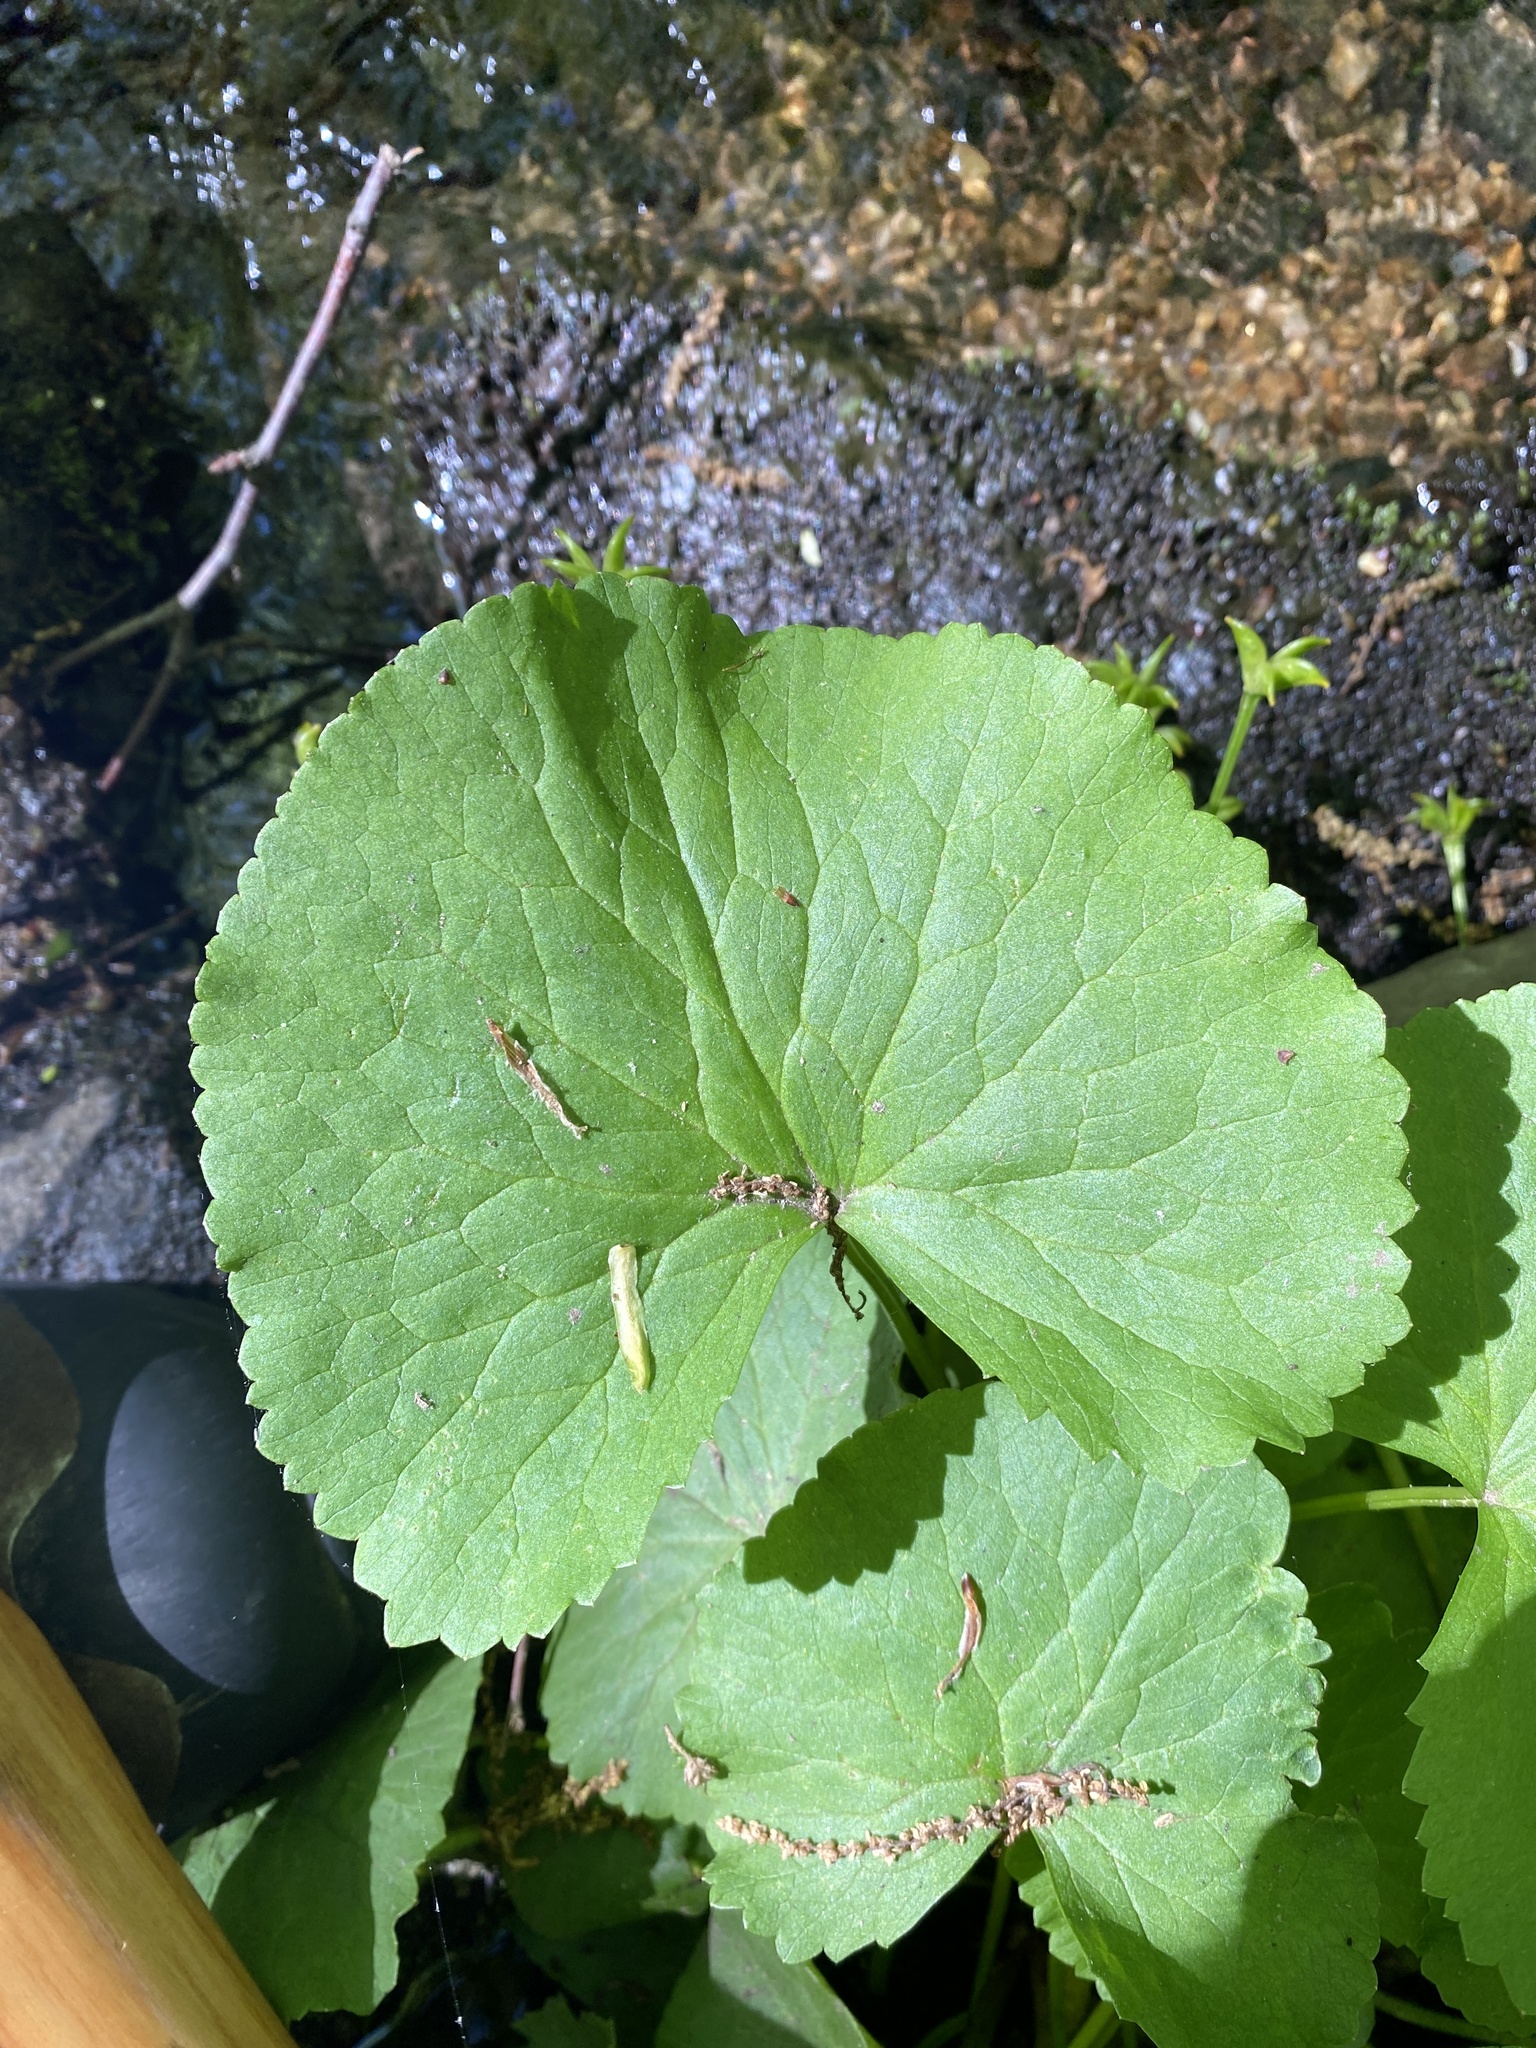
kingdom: Plantae
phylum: Tracheophyta
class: Magnoliopsida
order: Ranunculales
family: Ranunculaceae
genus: Caltha
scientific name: Caltha palustris
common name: Marsh marigold
